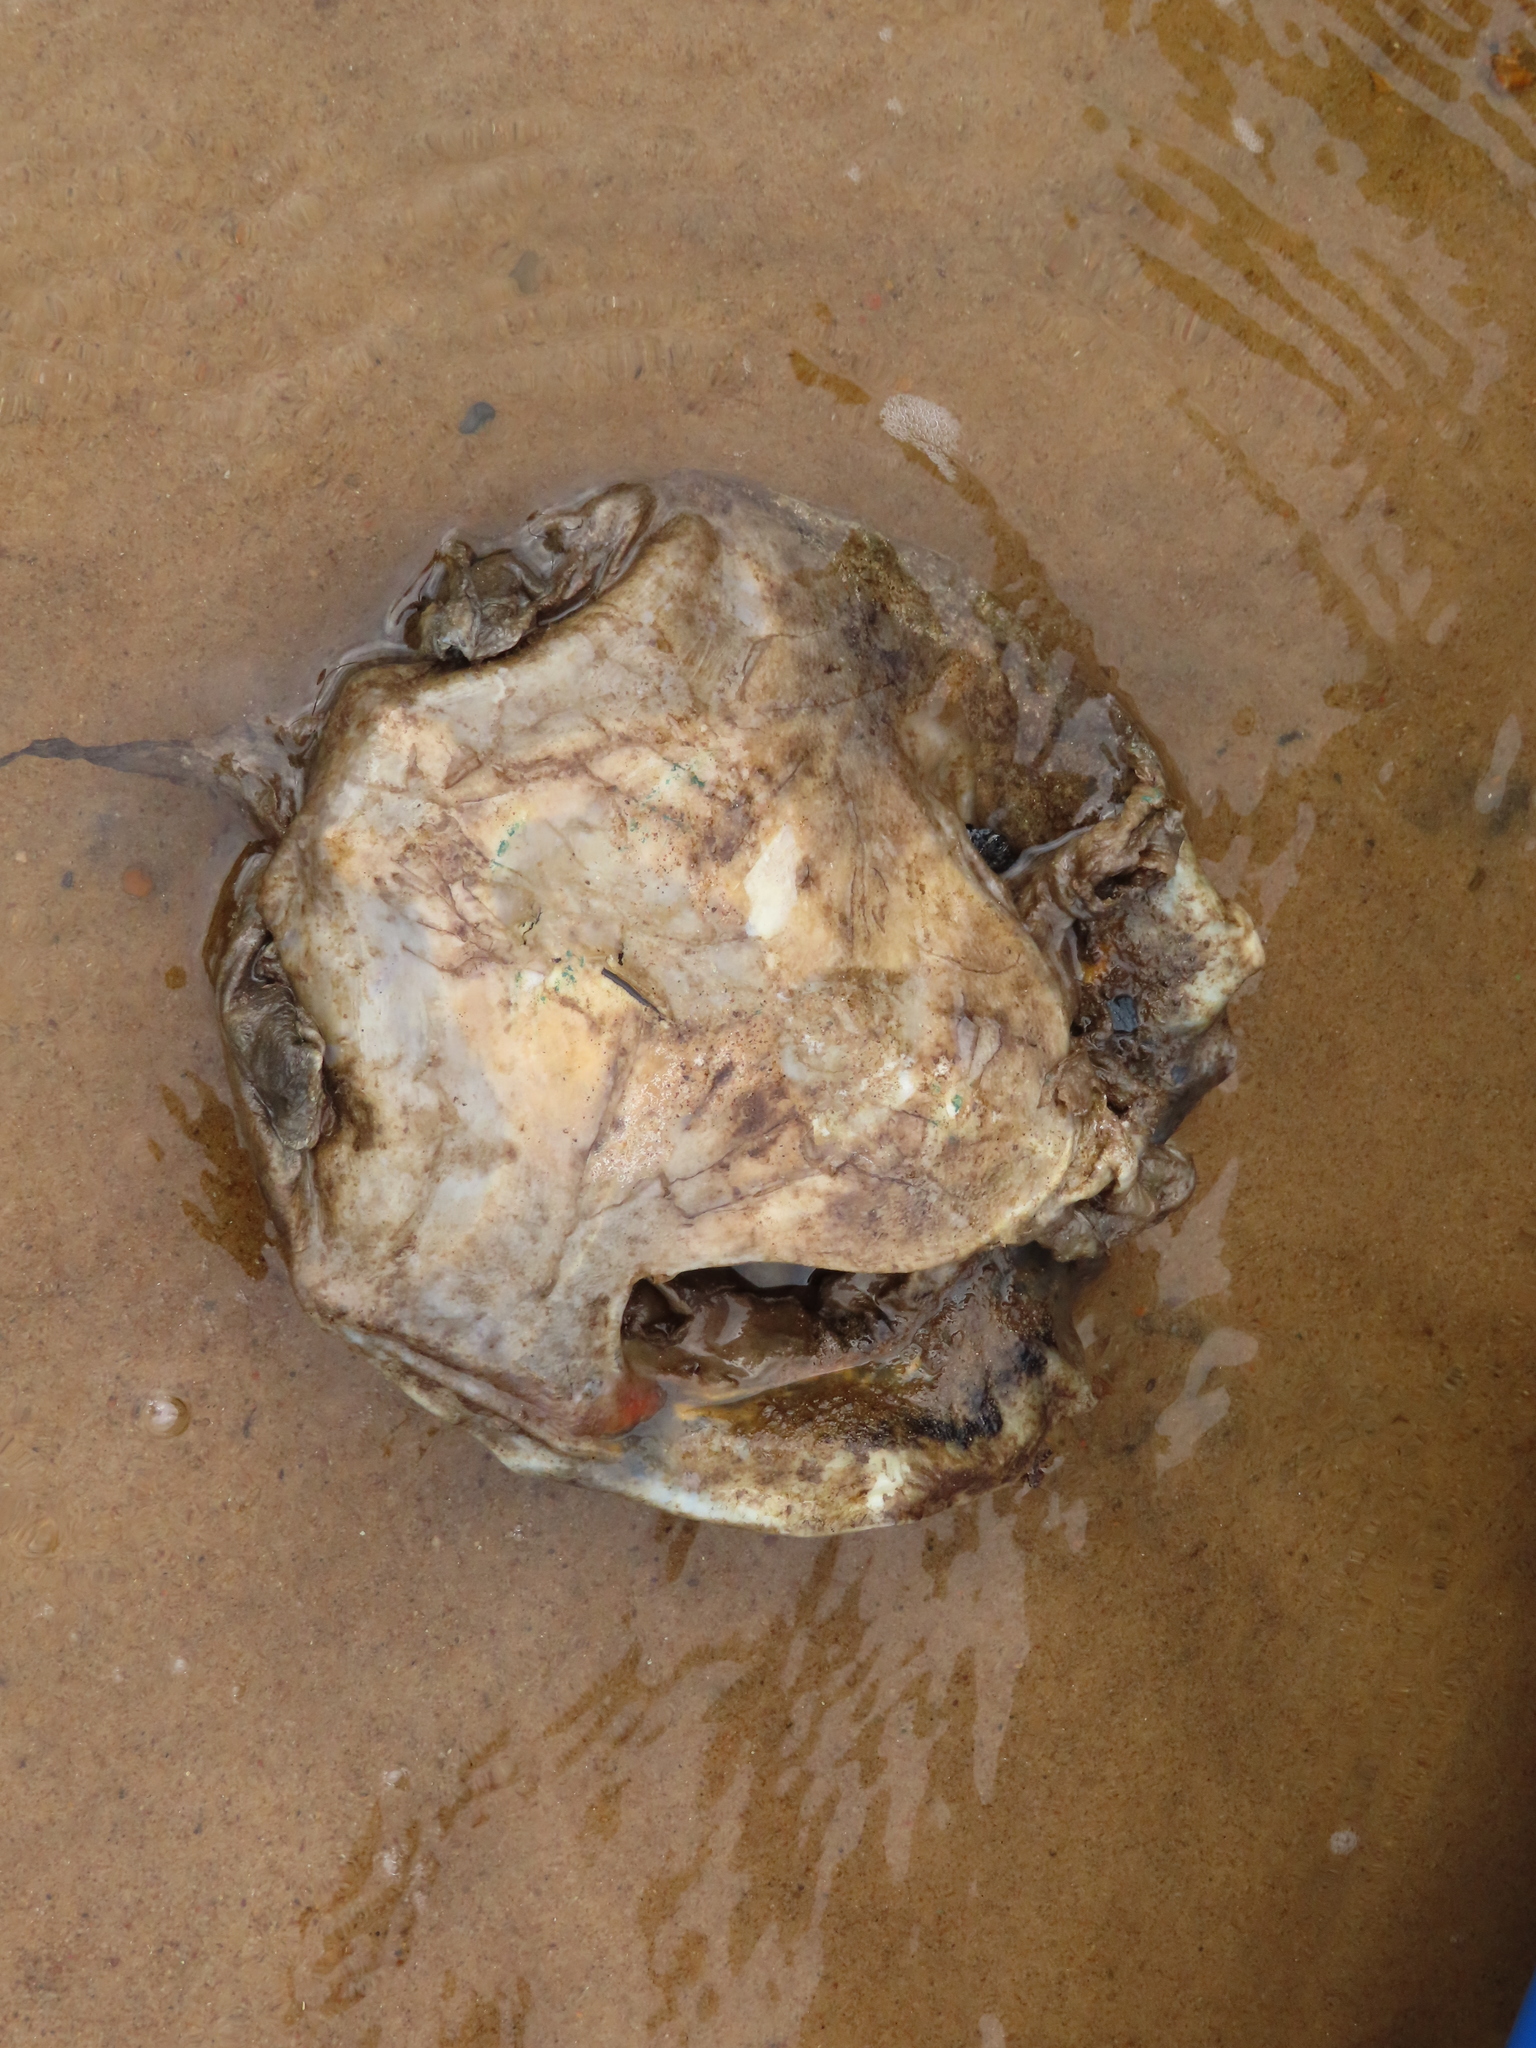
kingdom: Animalia
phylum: Chordata
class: Testudines
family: Trionychidae
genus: Apalone
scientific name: Apalone mutica
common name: Smooth softshell turtle
